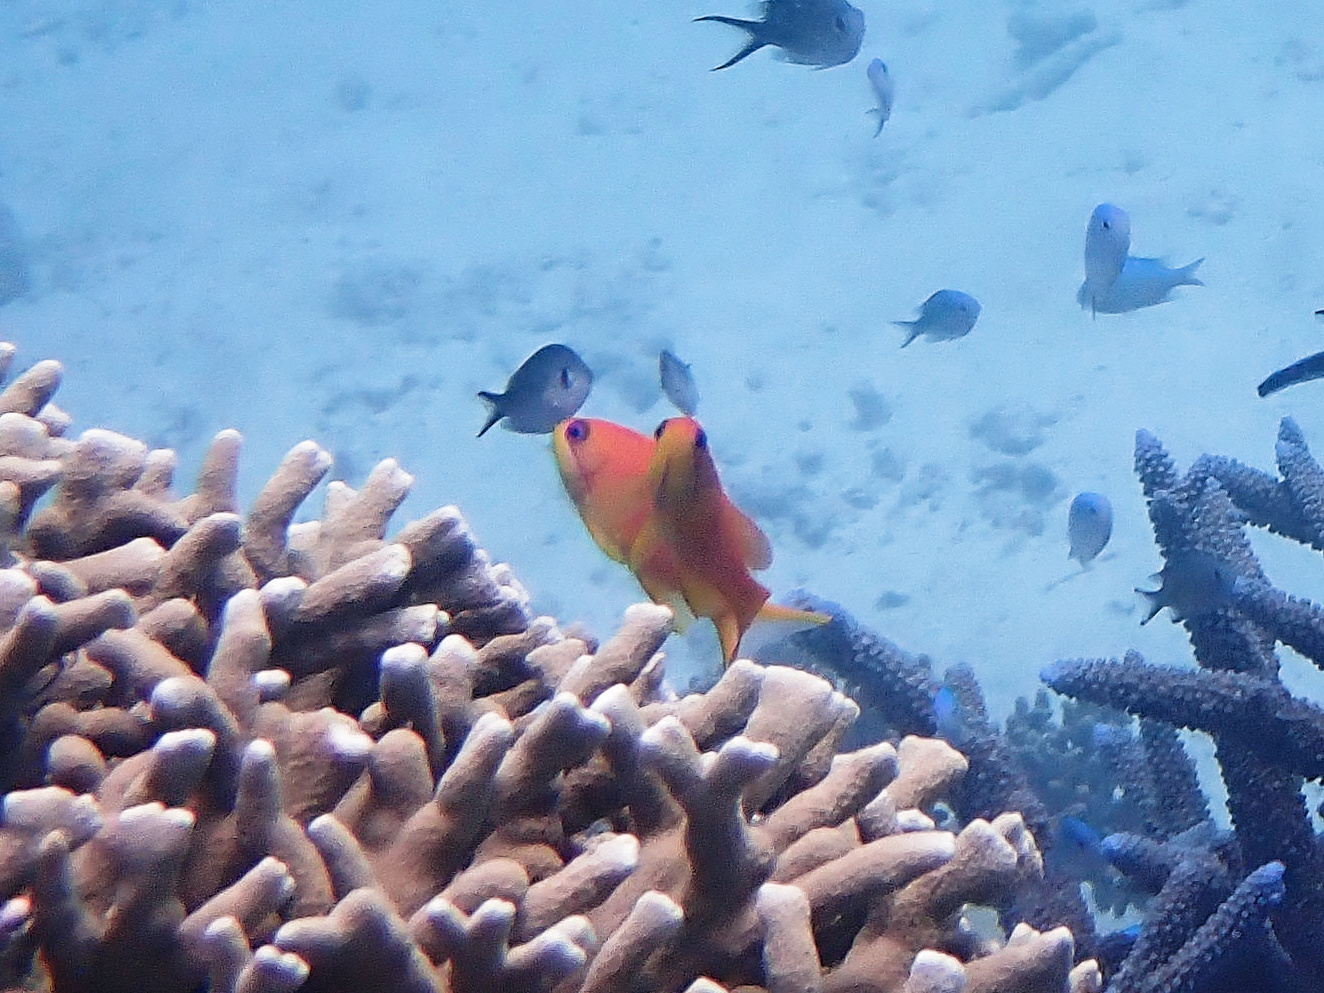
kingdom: Animalia
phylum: Chordata
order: Perciformes
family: Serranidae
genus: Pseudanthias
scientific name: Pseudanthias squamipinnis
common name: Scalefin anthias
